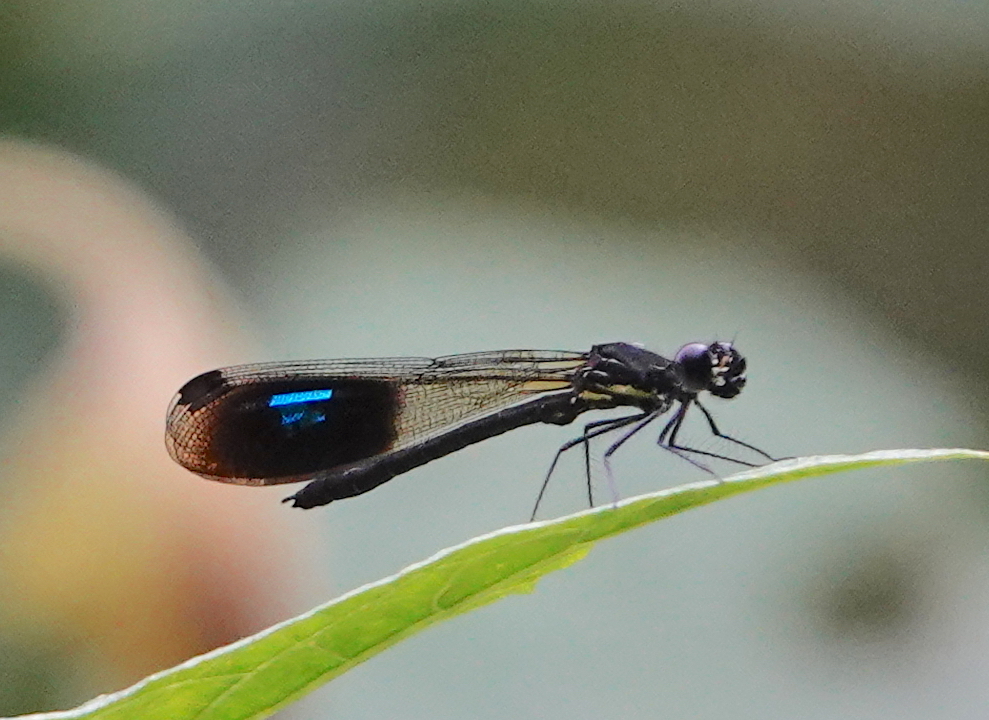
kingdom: Animalia
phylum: Arthropoda
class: Insecta
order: Odonata
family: Chlorocyphidae
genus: Rhinocypha
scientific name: Rhinocypha heterostigma
